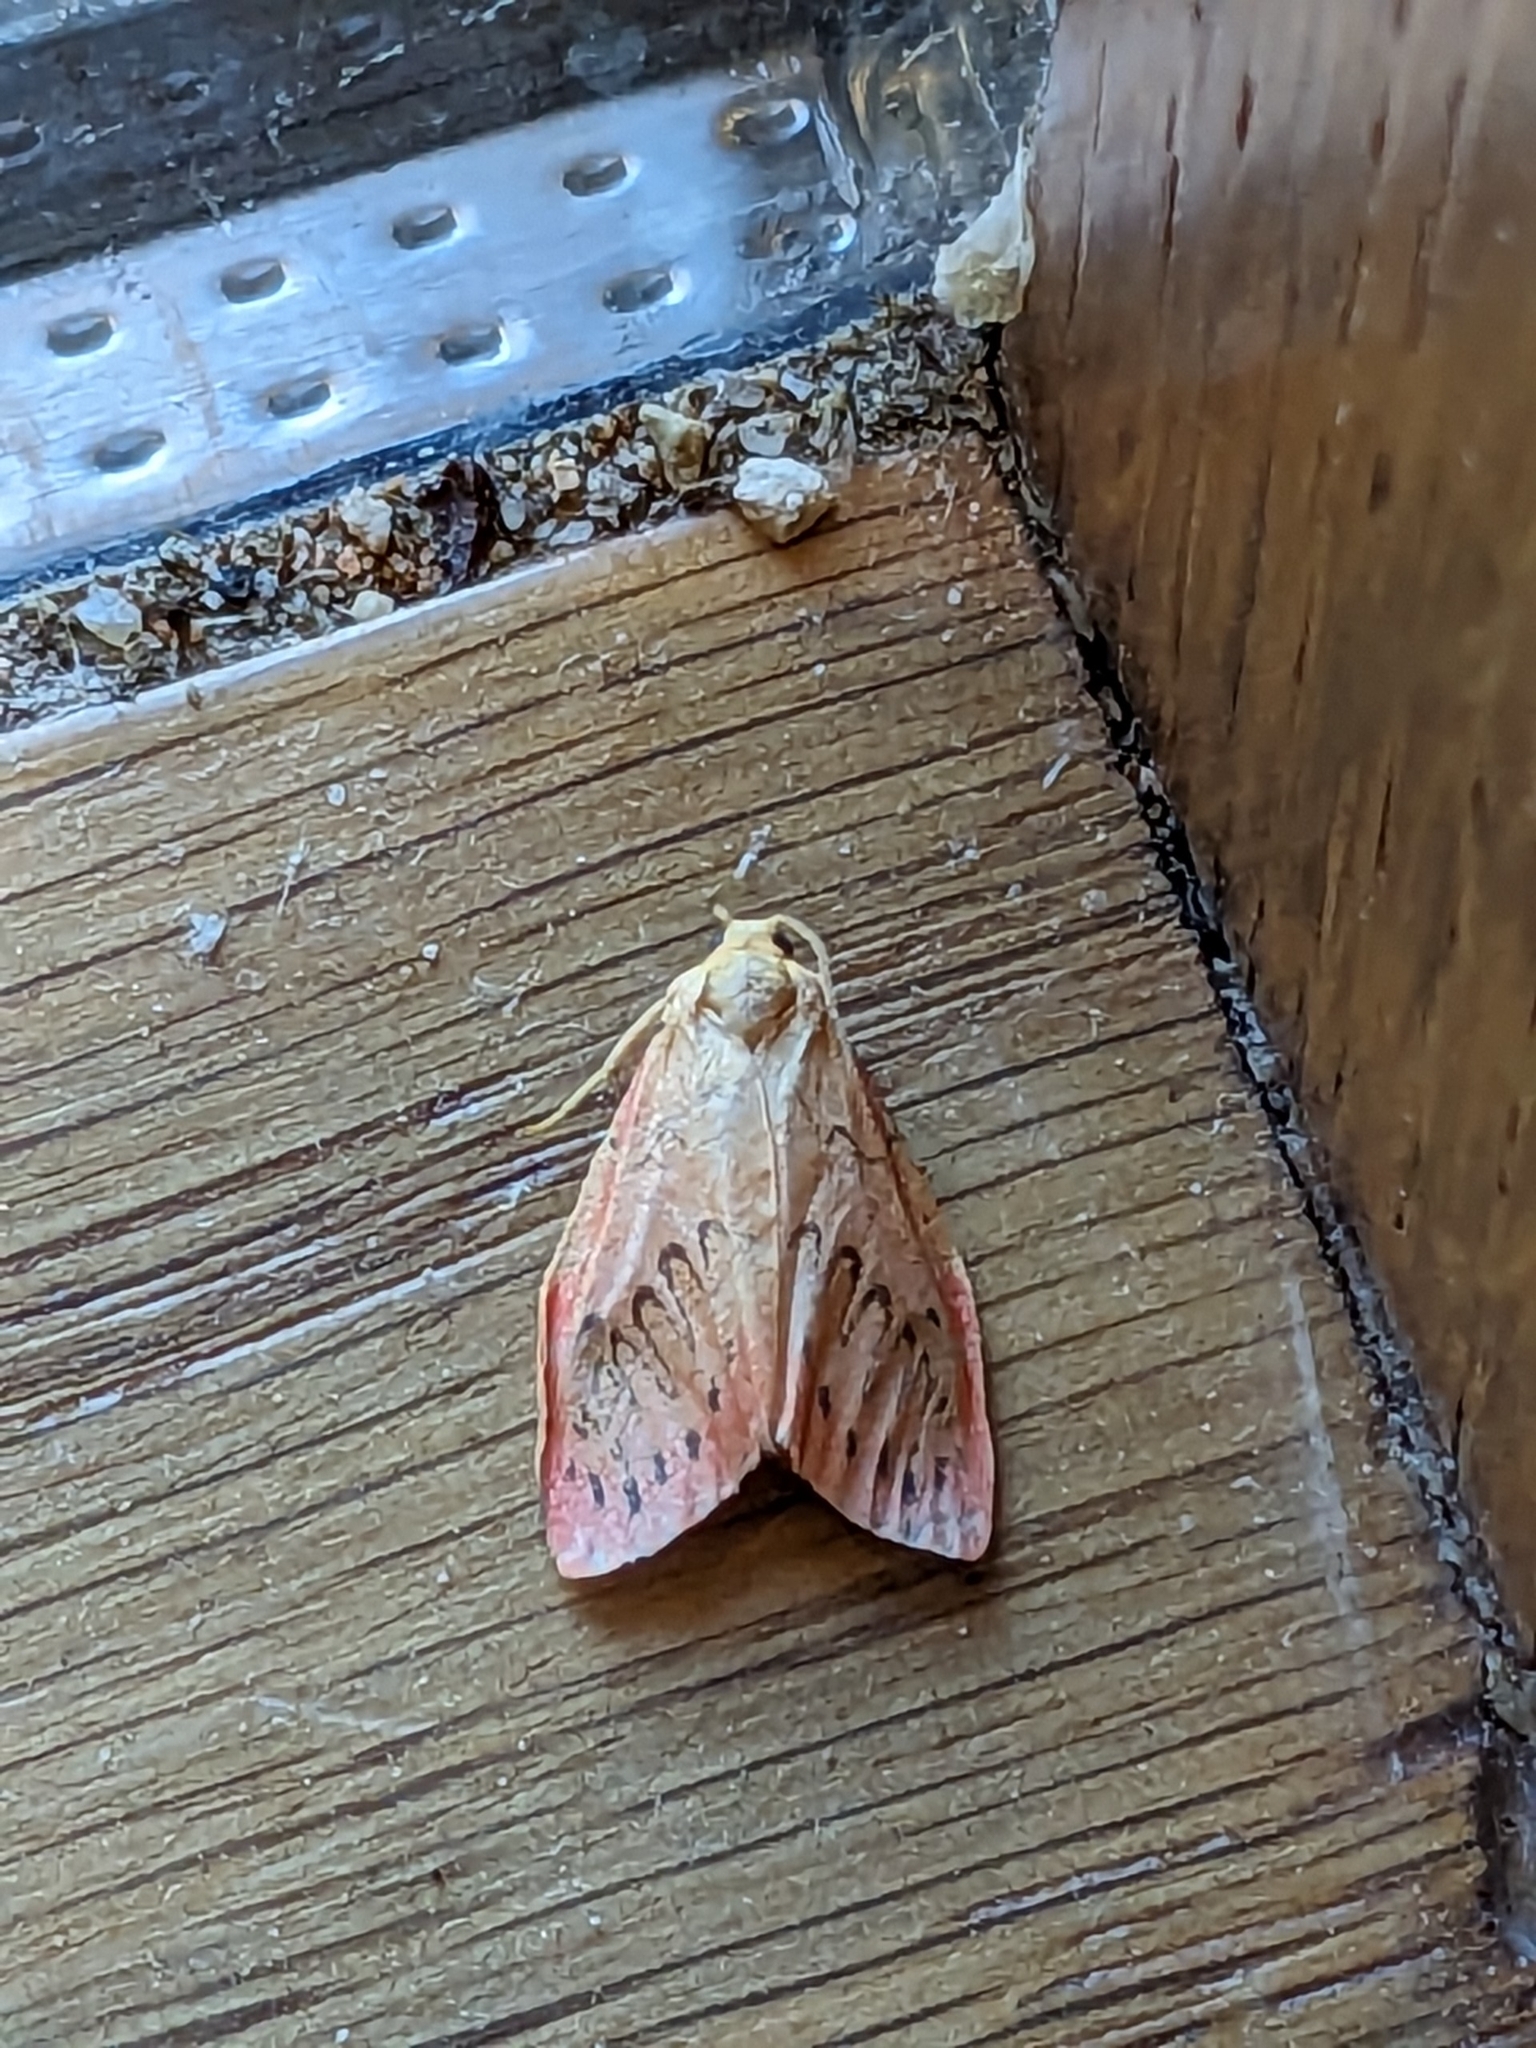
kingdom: Animalia
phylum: Arthropoda
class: Insecta
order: Lepidoptera
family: Erebidae
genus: Miltochrista
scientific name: Miltochrista miniata
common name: Rosy footman
